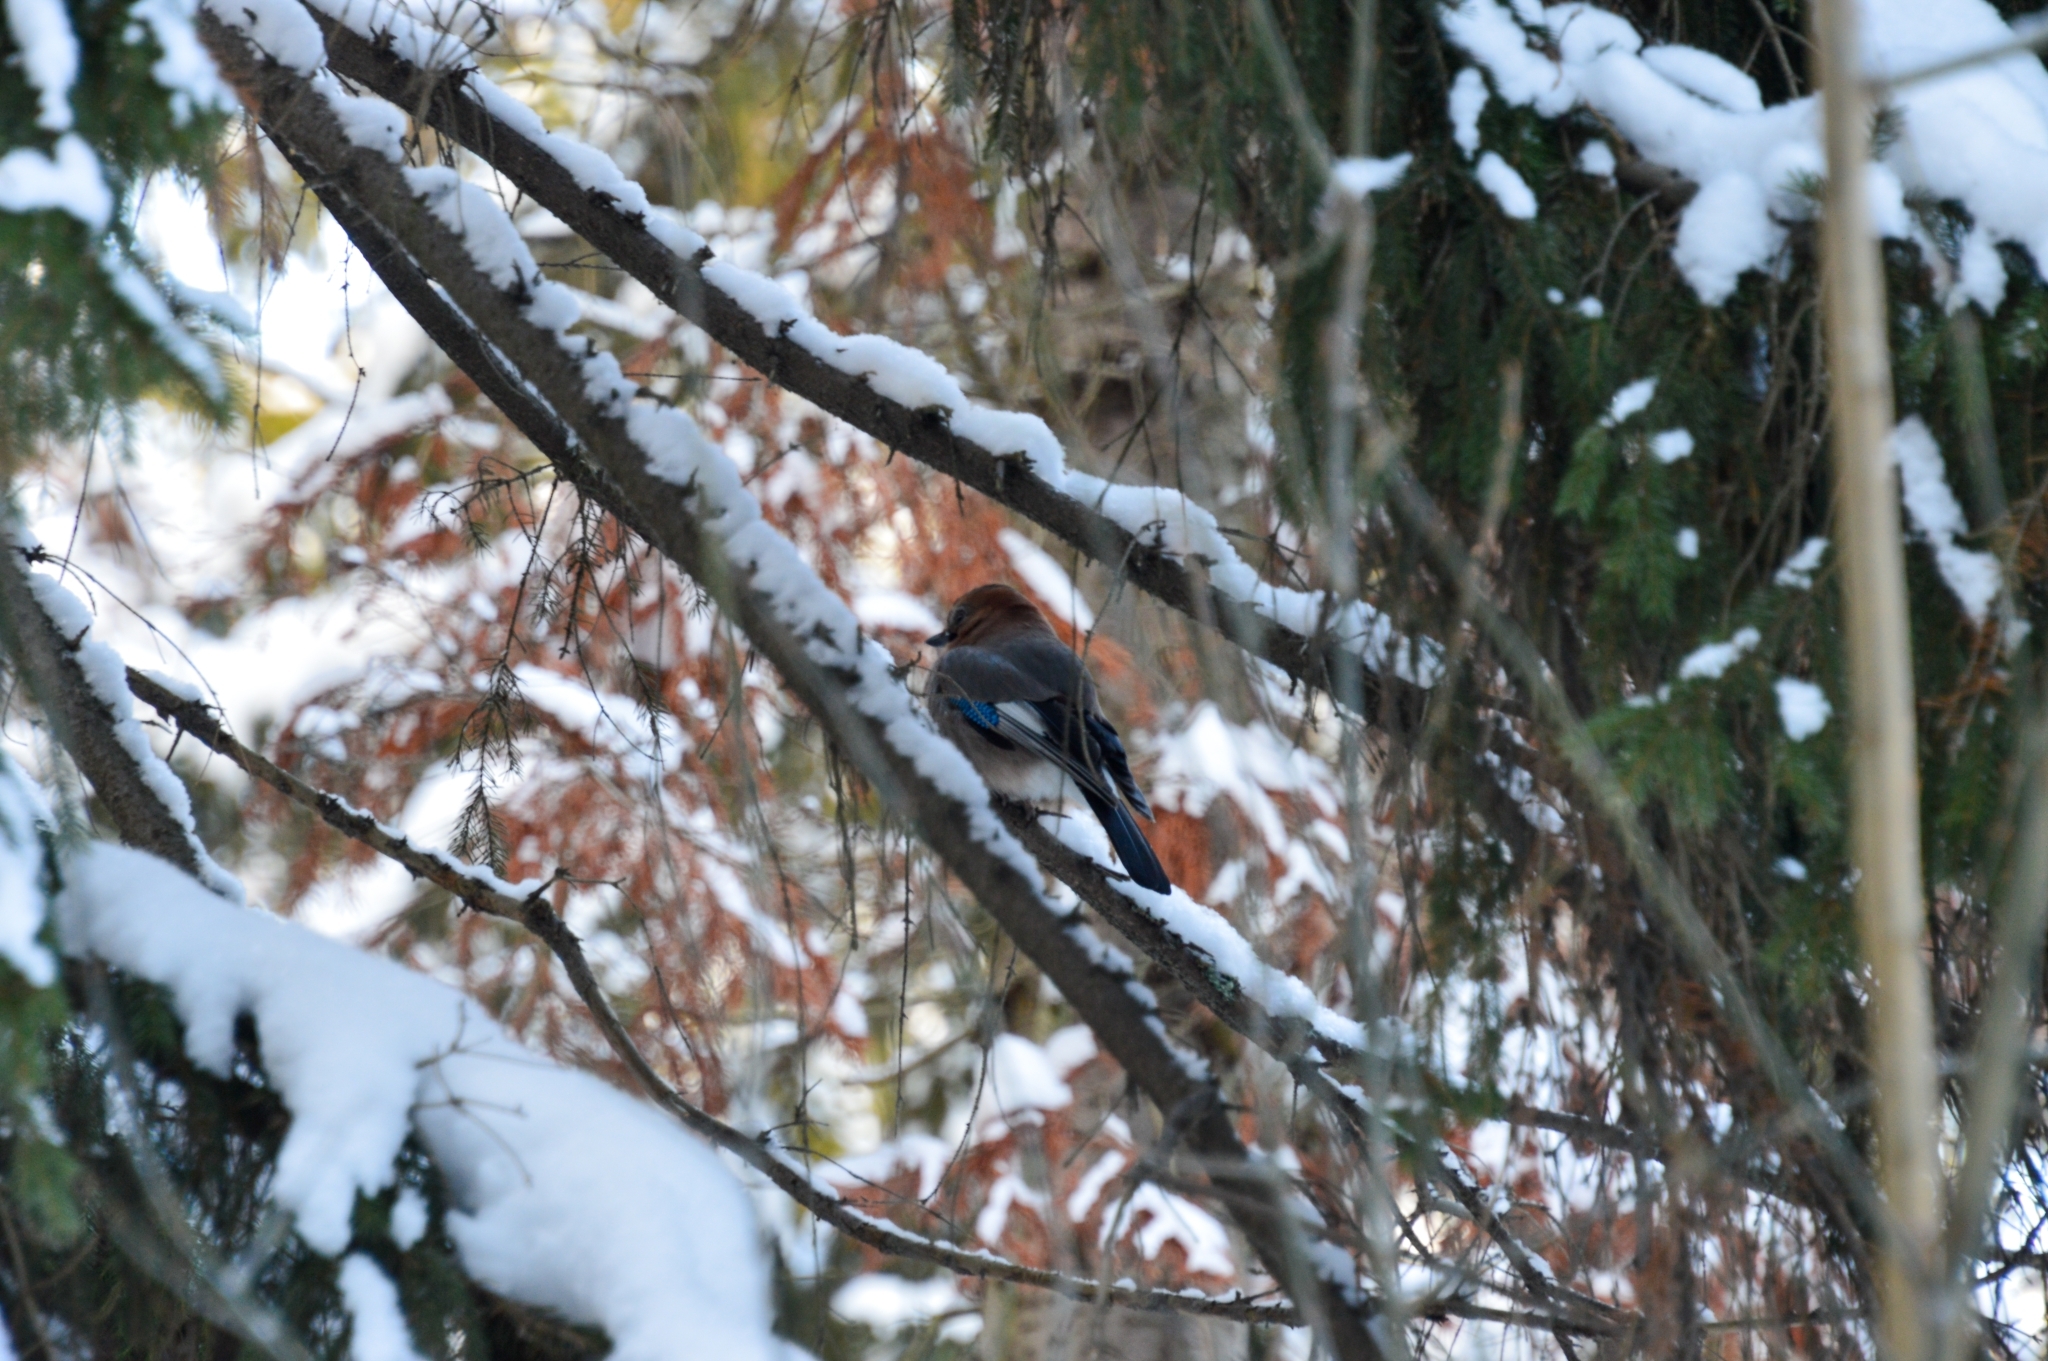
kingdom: Animalia
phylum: Chordata
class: Aves
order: Passeriformes
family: Corvidae
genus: Garrulus
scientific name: Garrulus glandarius
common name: Eurasian jay
